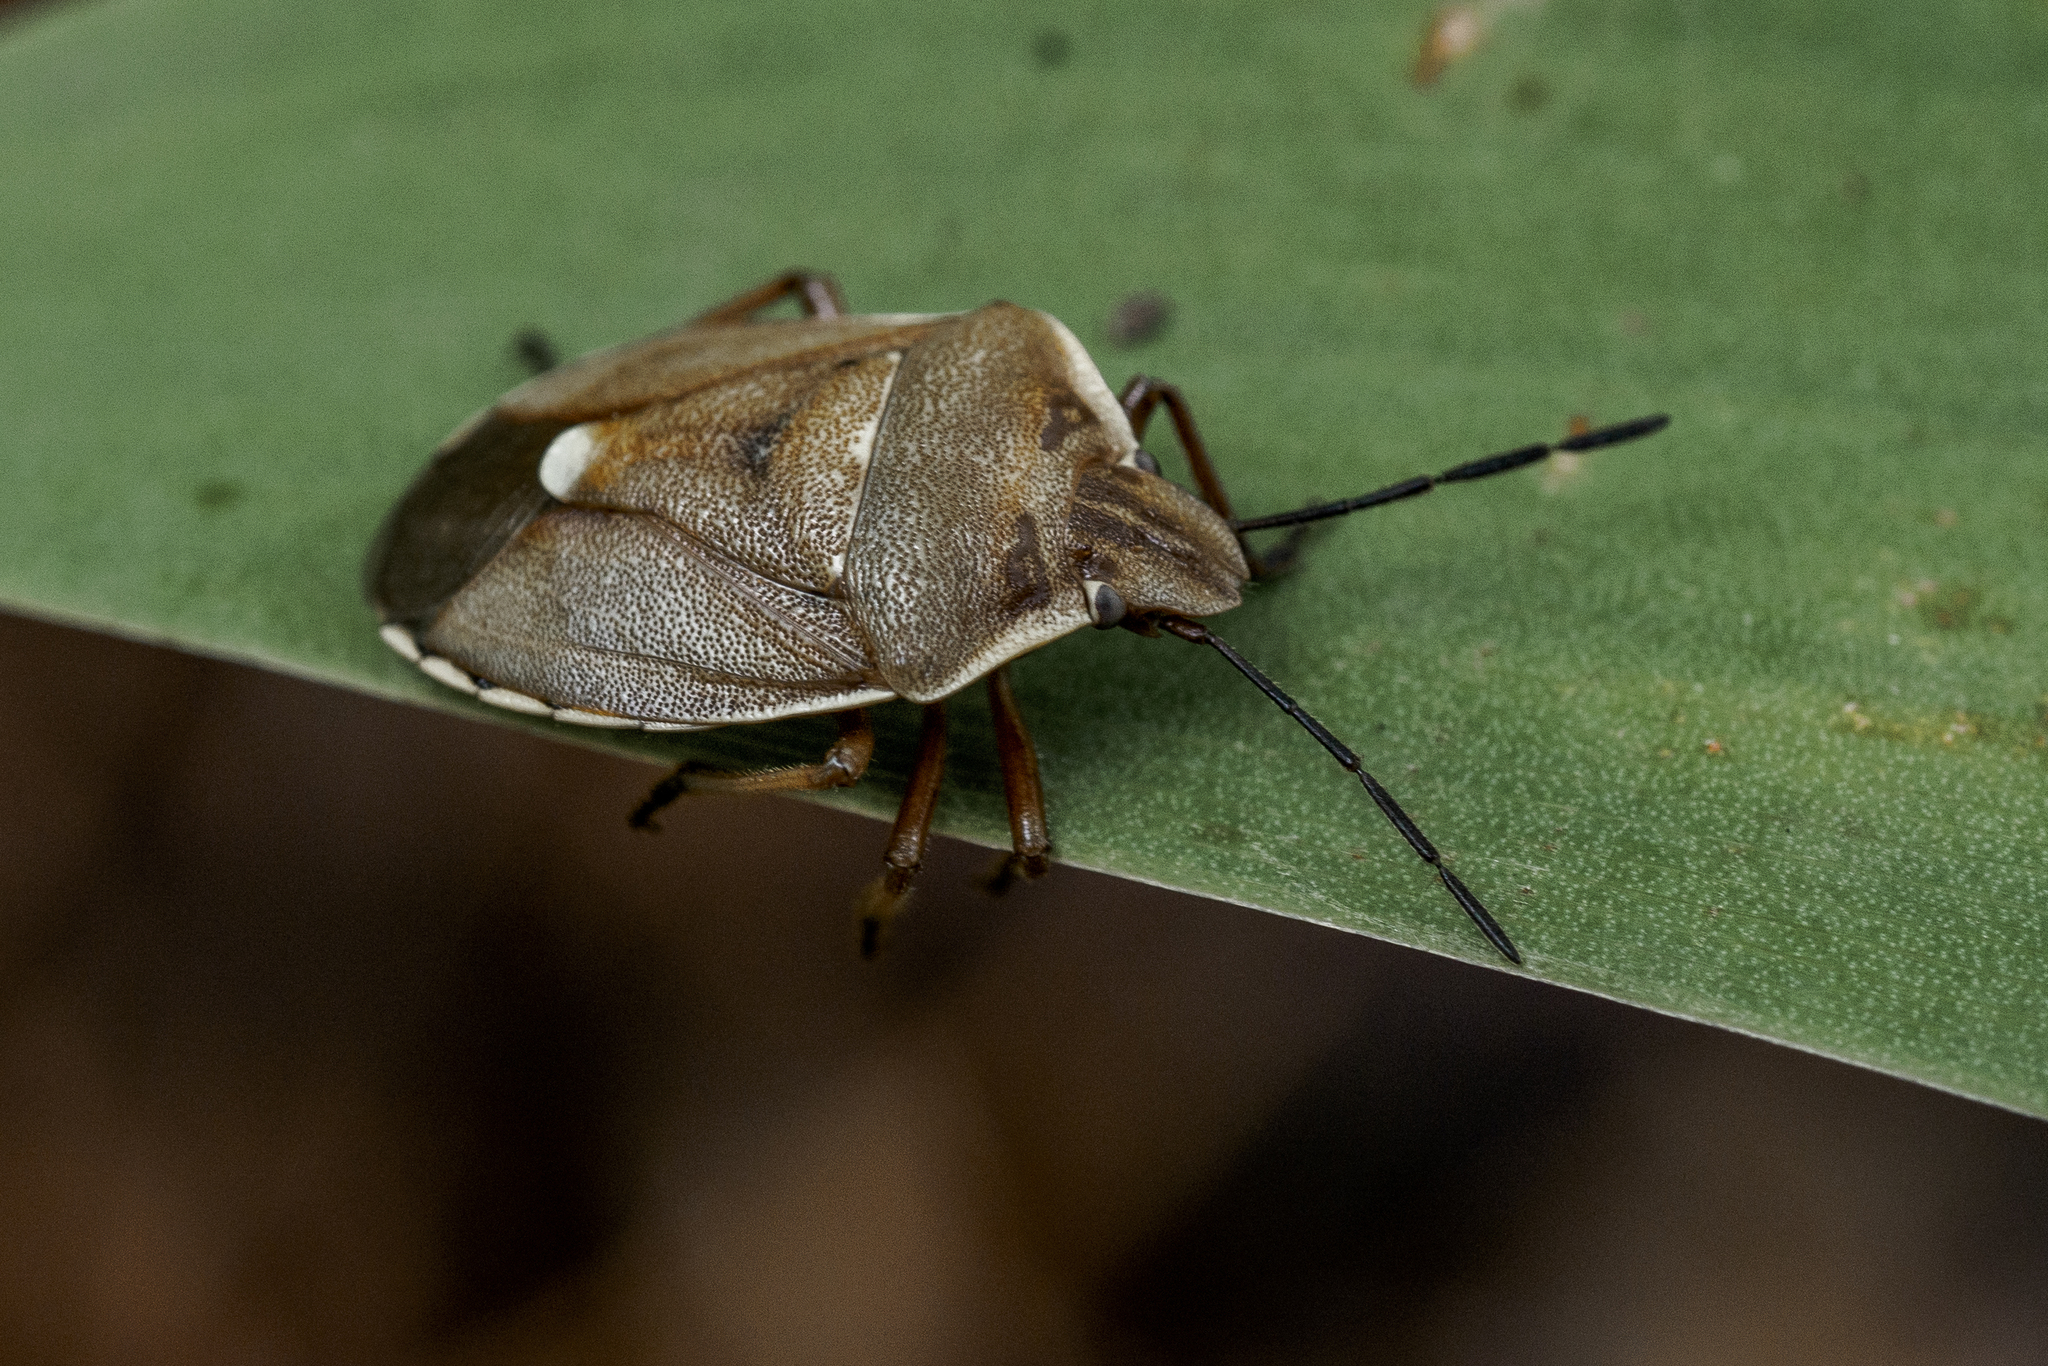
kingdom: Animalia
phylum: Arthropoda
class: Insecta
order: Hemiptera
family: Pentatomidae
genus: Chlorochroa
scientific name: Chlorochroa pinicola
